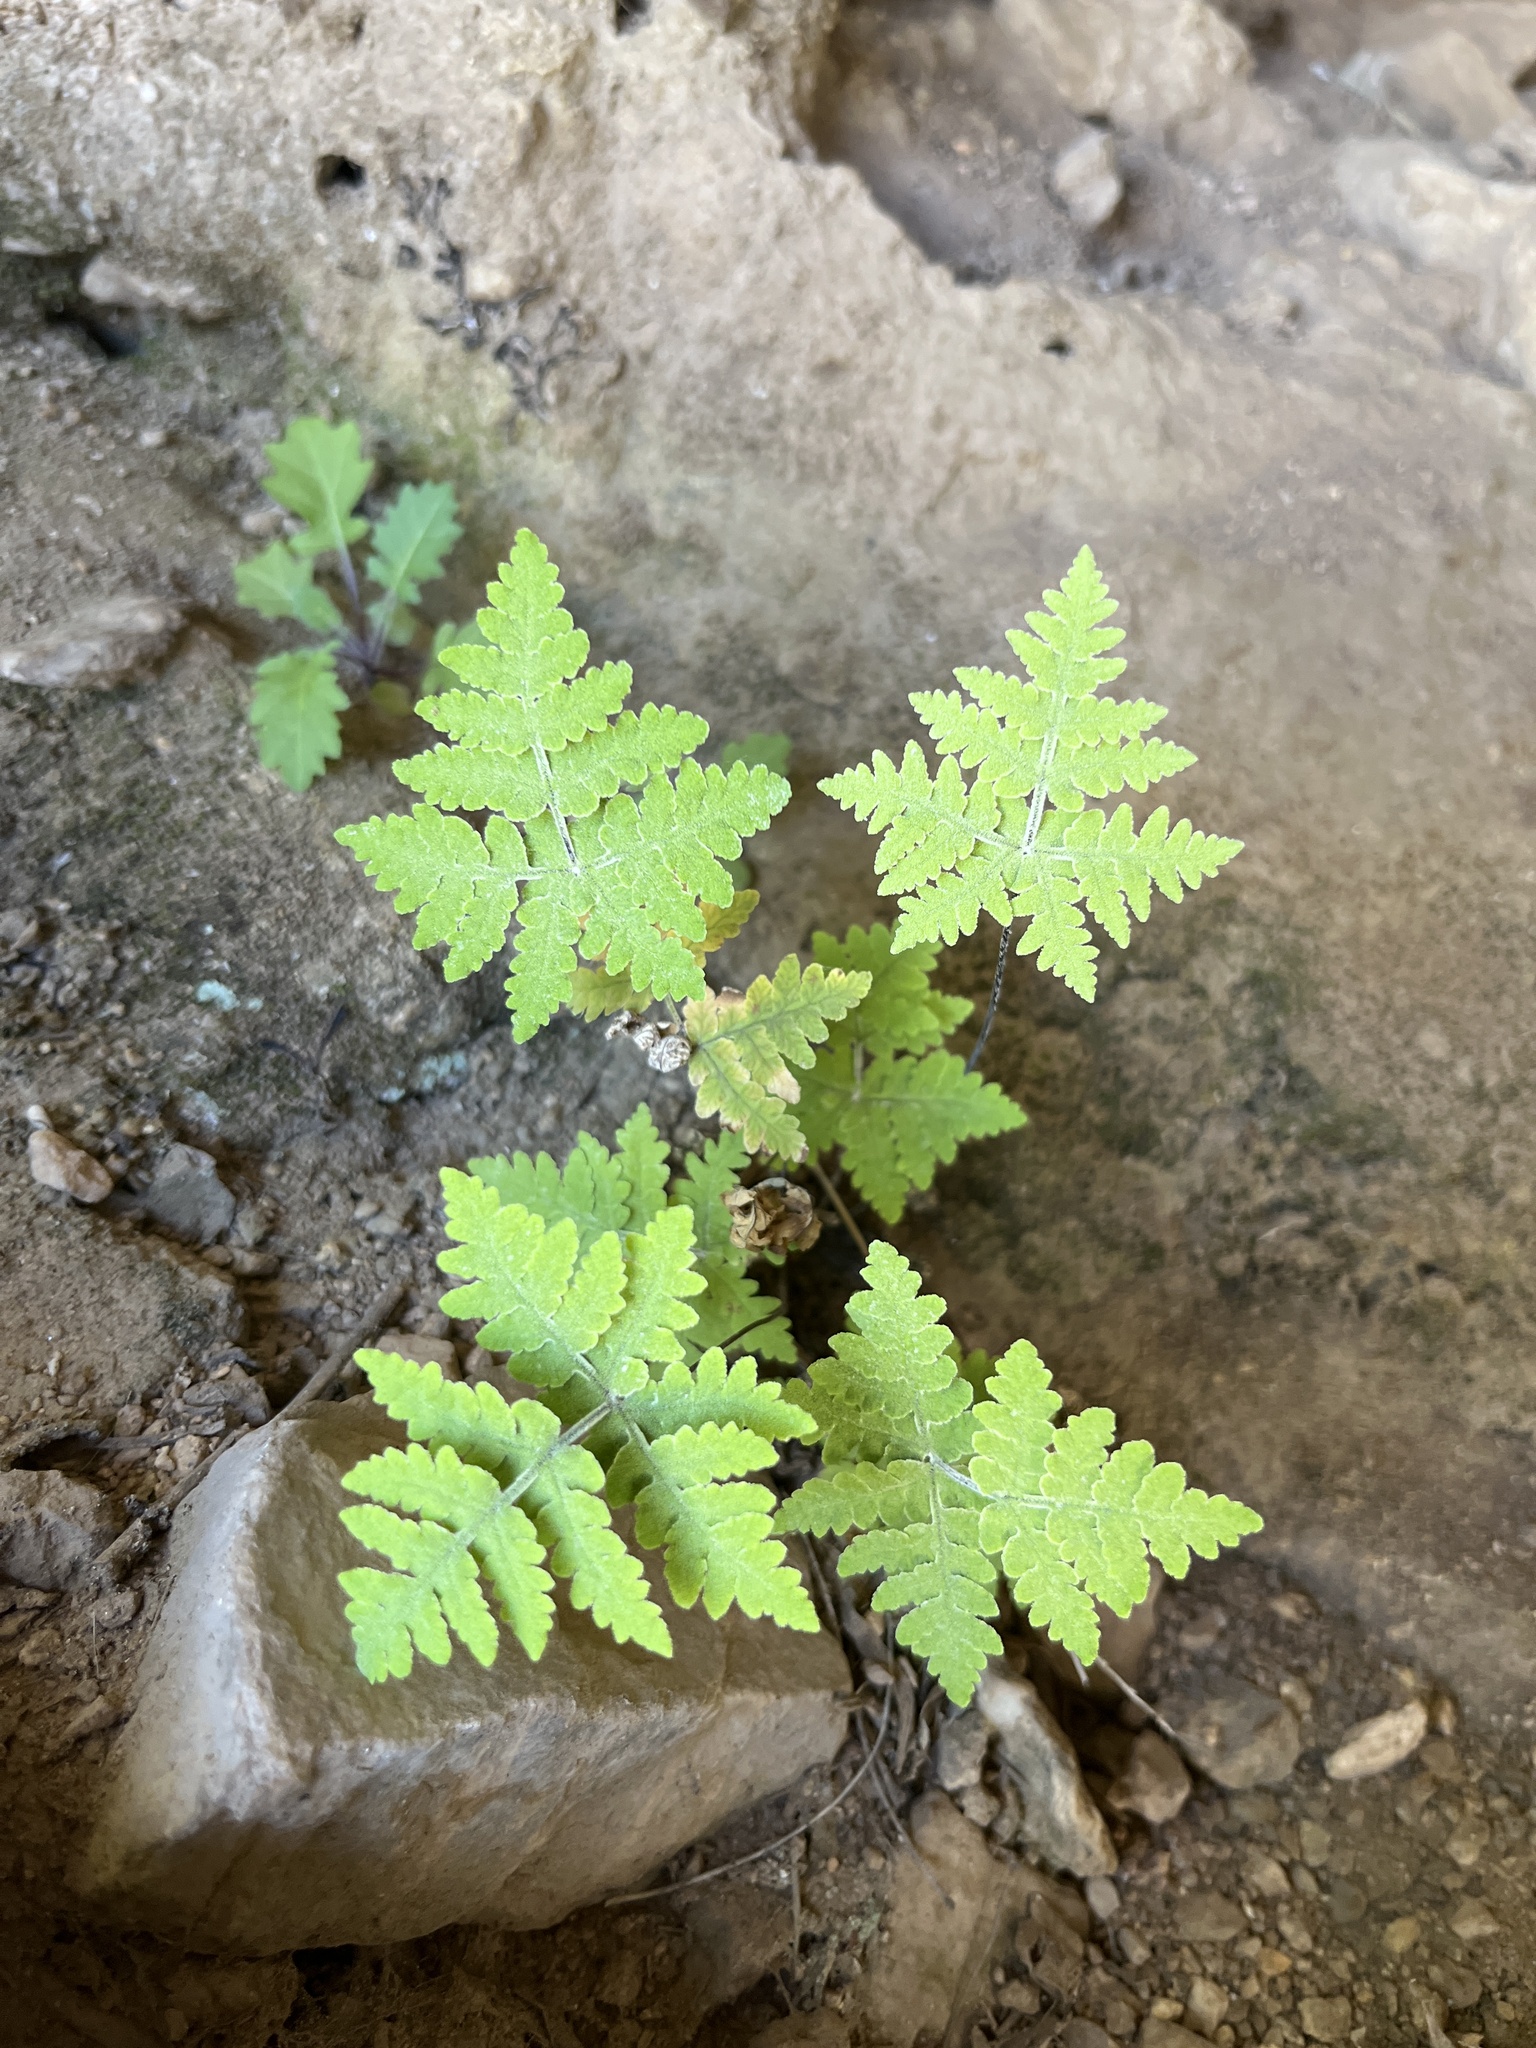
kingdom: Plantae
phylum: Tracheophyta
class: Polypodiopsida
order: Polypodiales
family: Pteridaceae
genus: Pentagramma
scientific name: Pentagramma maxonii
